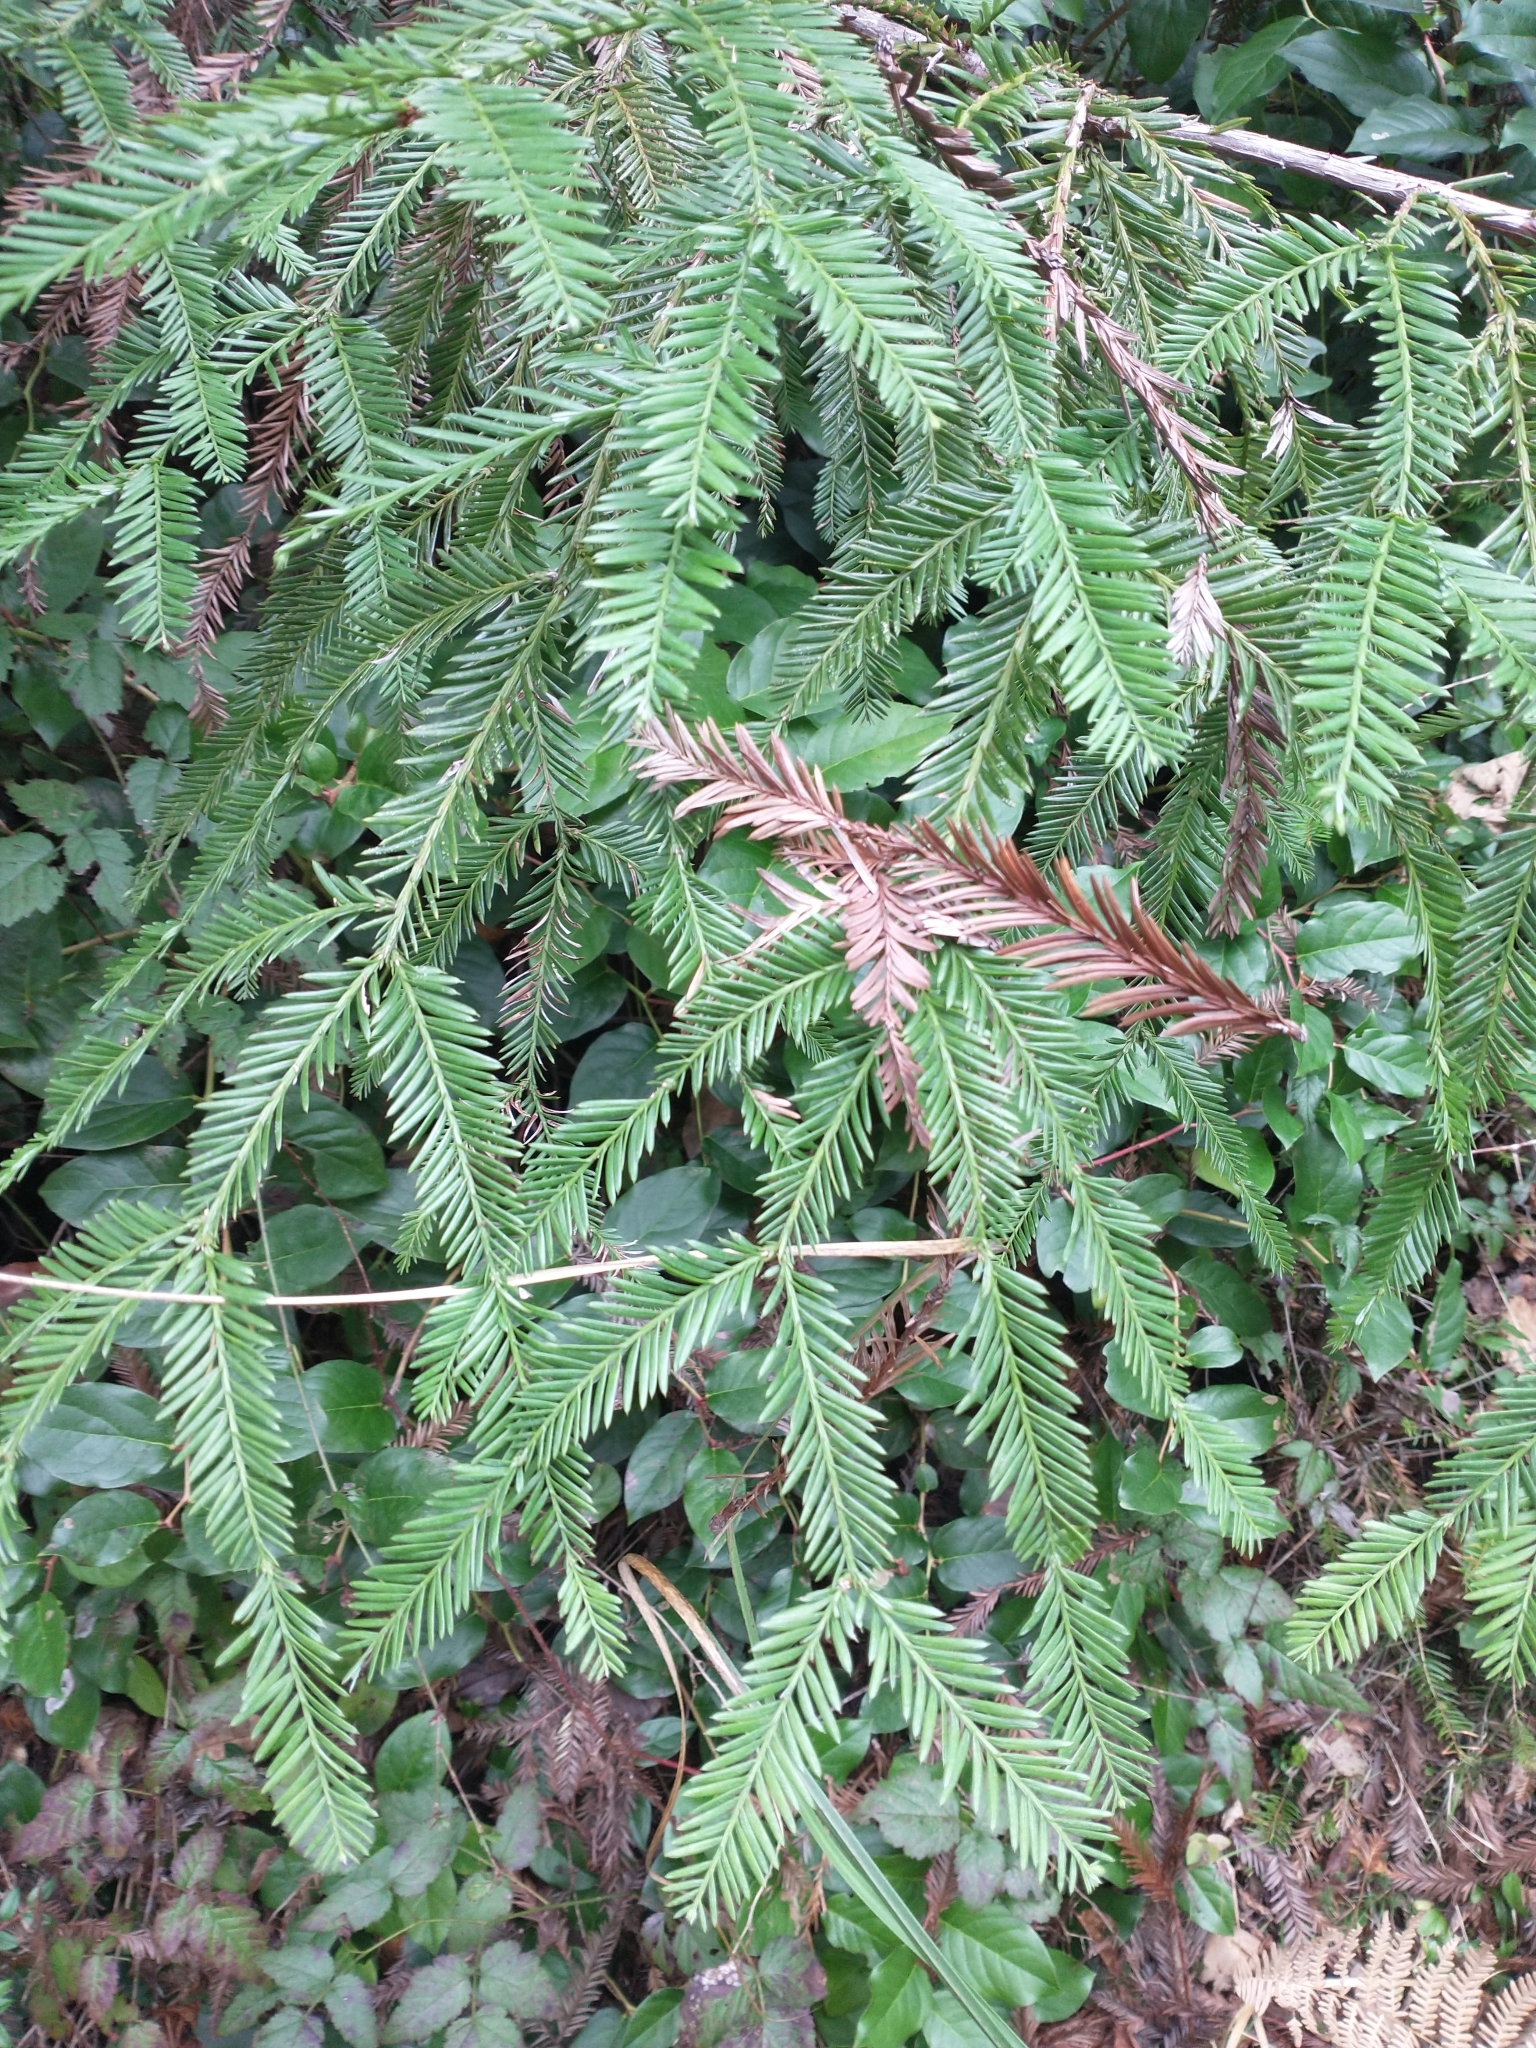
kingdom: Plantae
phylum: Tracheophyta
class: Pinopsida
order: Pinales
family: Cupressaceae
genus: Sequoia
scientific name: Sequoia sempervirens
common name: Coast redwood
